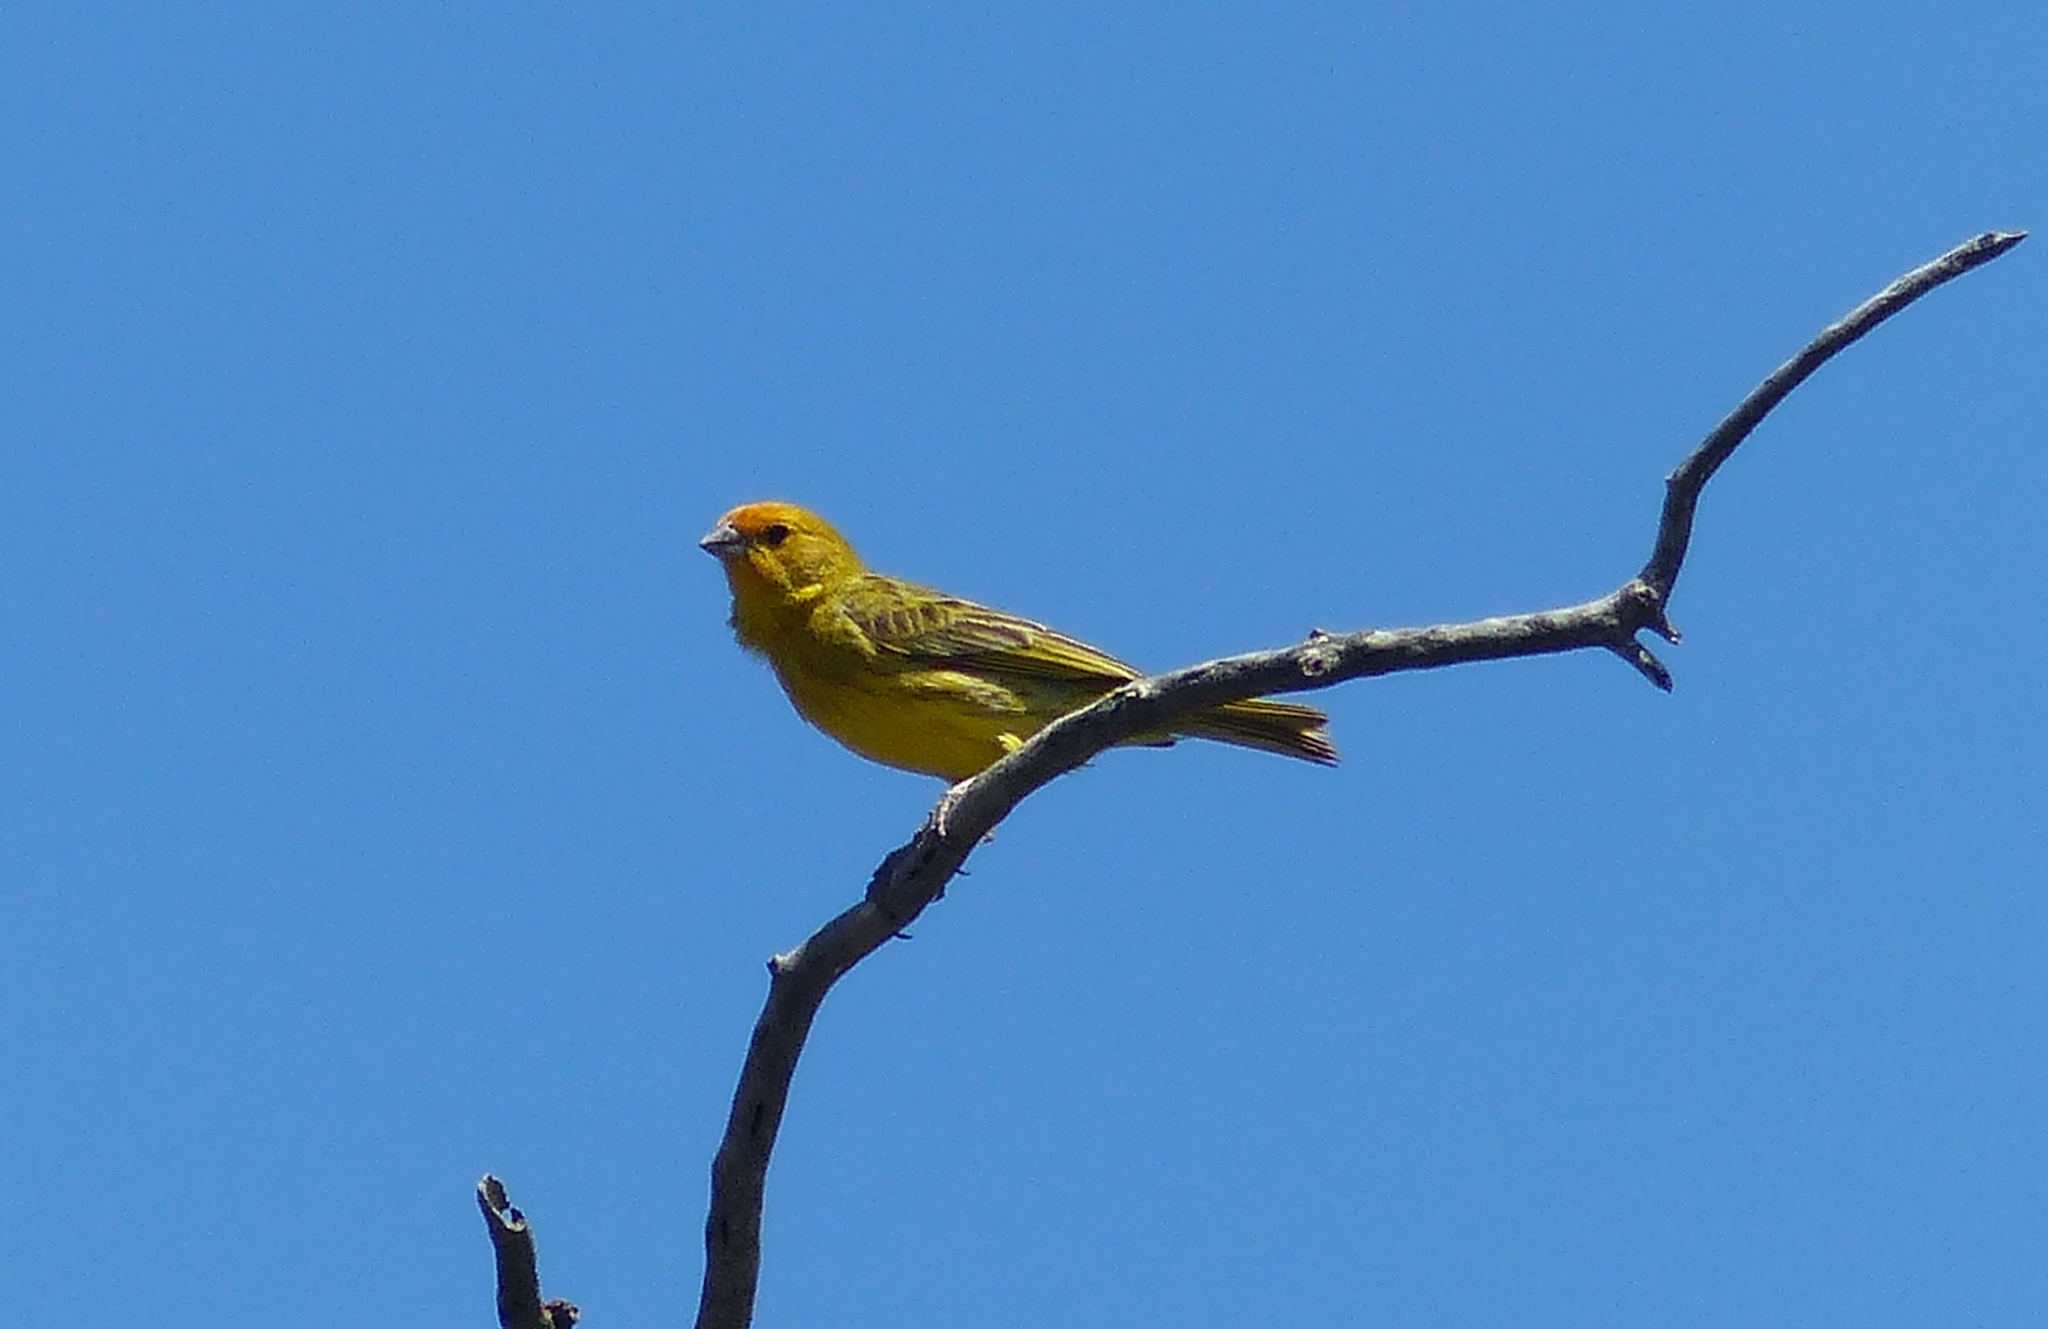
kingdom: Animalia
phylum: Chordata
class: Aves
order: Passeriformes
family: Thraupidae
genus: Sicalis
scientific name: Sicalis flaveola
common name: Saffron finch
